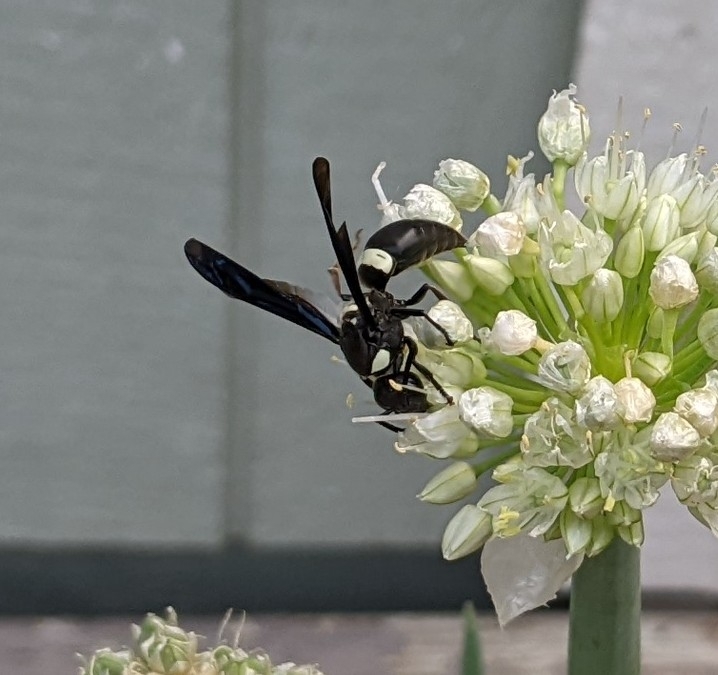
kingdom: Animalia
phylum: Arthropoda
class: Insecta
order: Hymenoptera
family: Eumenidae
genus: Monobia
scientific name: Monobia quadridens
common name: Four-toothed mason wasp
